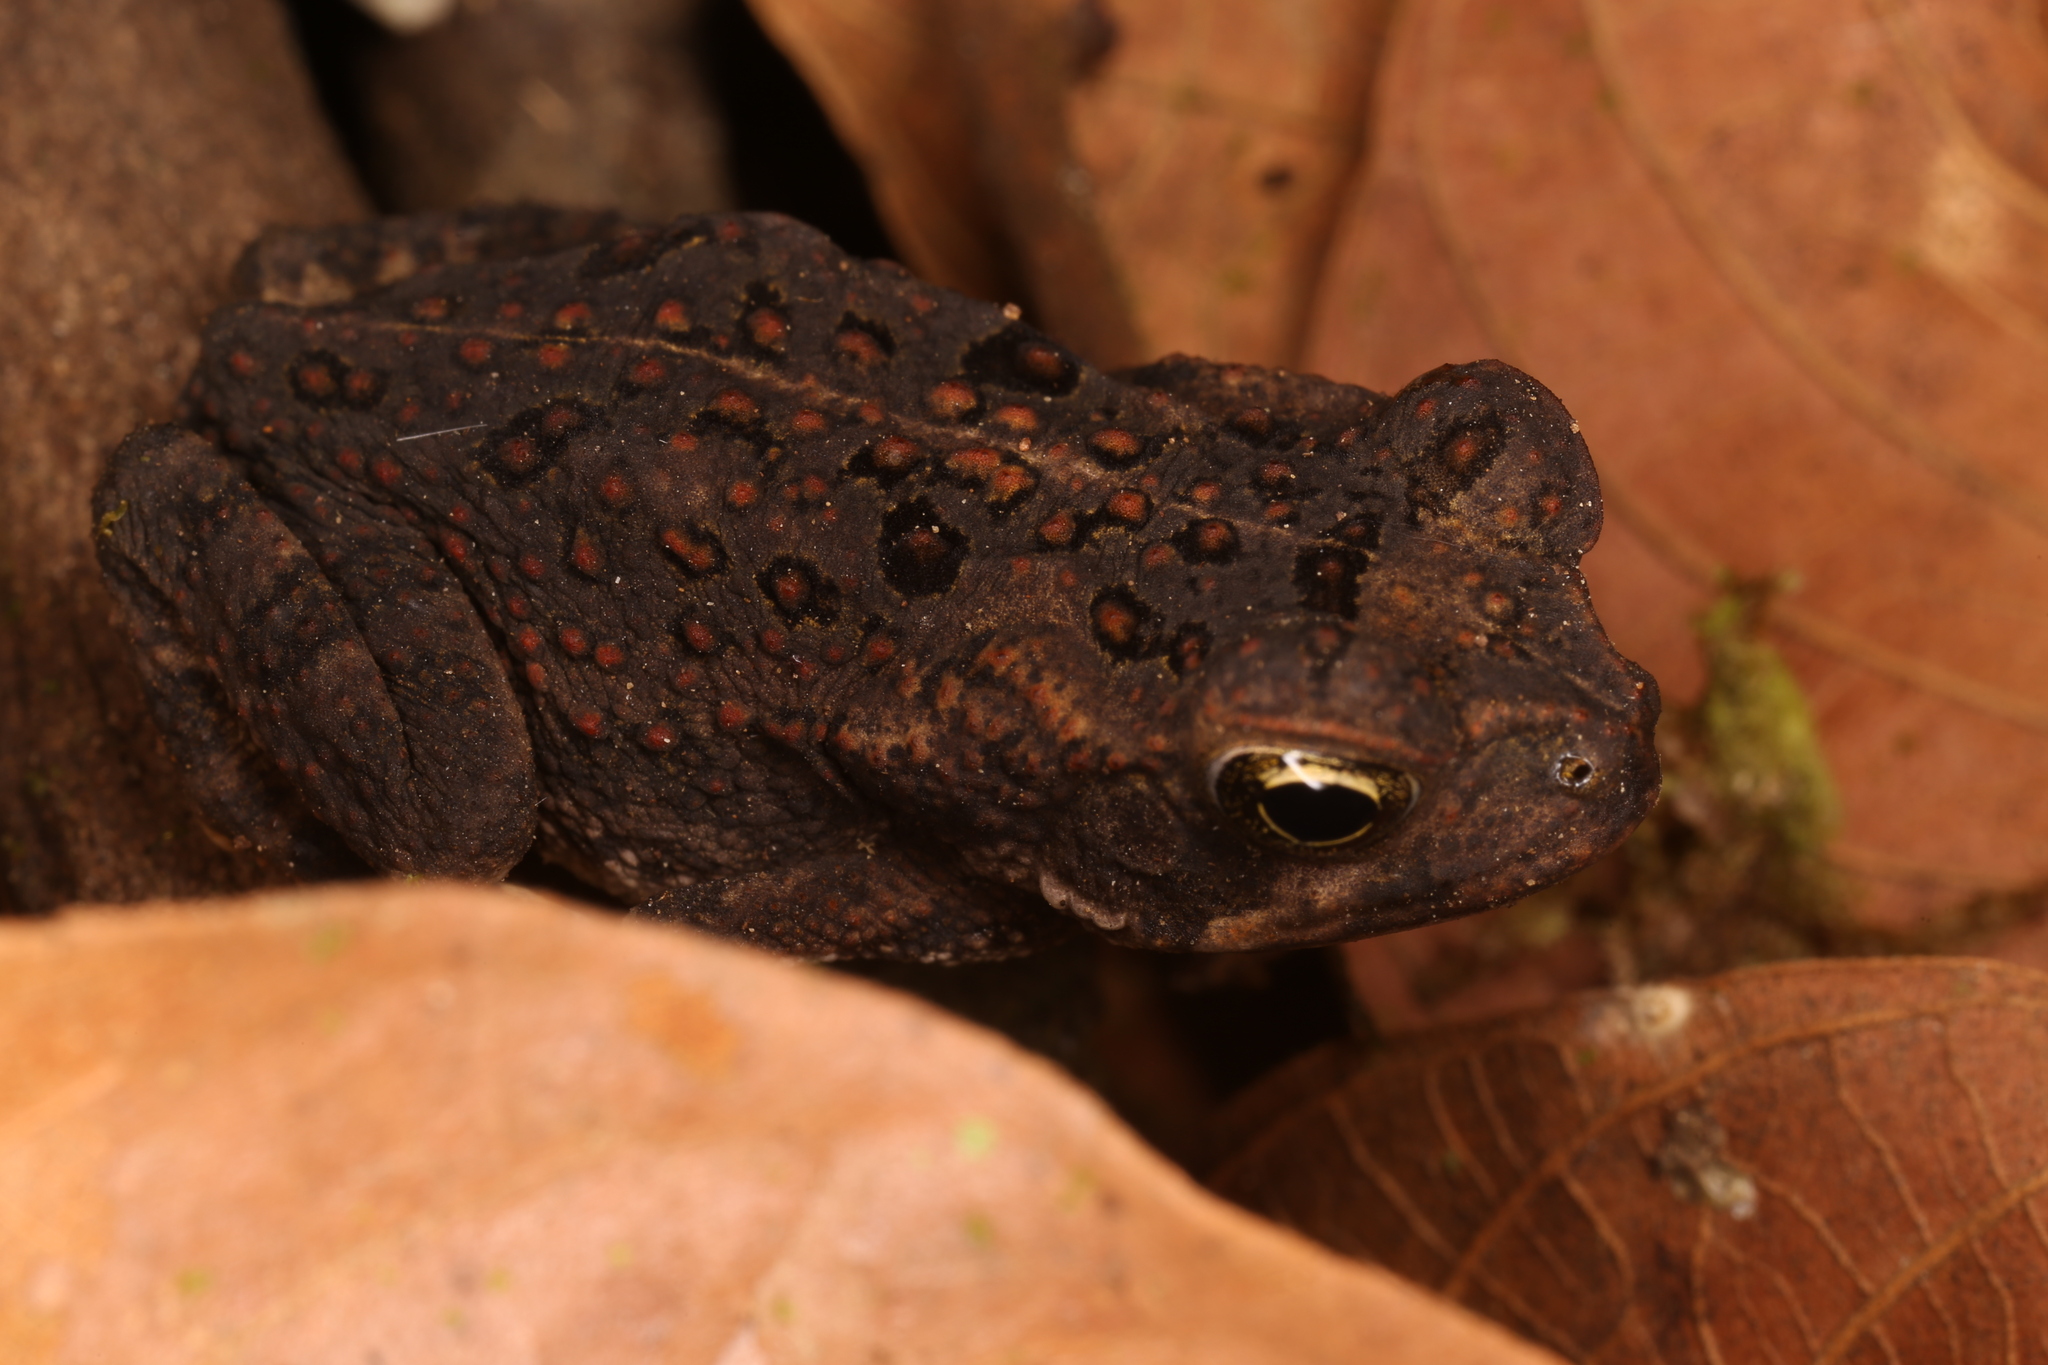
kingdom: Animalia
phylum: Chordata
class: Amphibia
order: Anura
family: Bufonidae
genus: Rhinella
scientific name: Rhinella horribilis
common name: Mesoamerican cane toad
